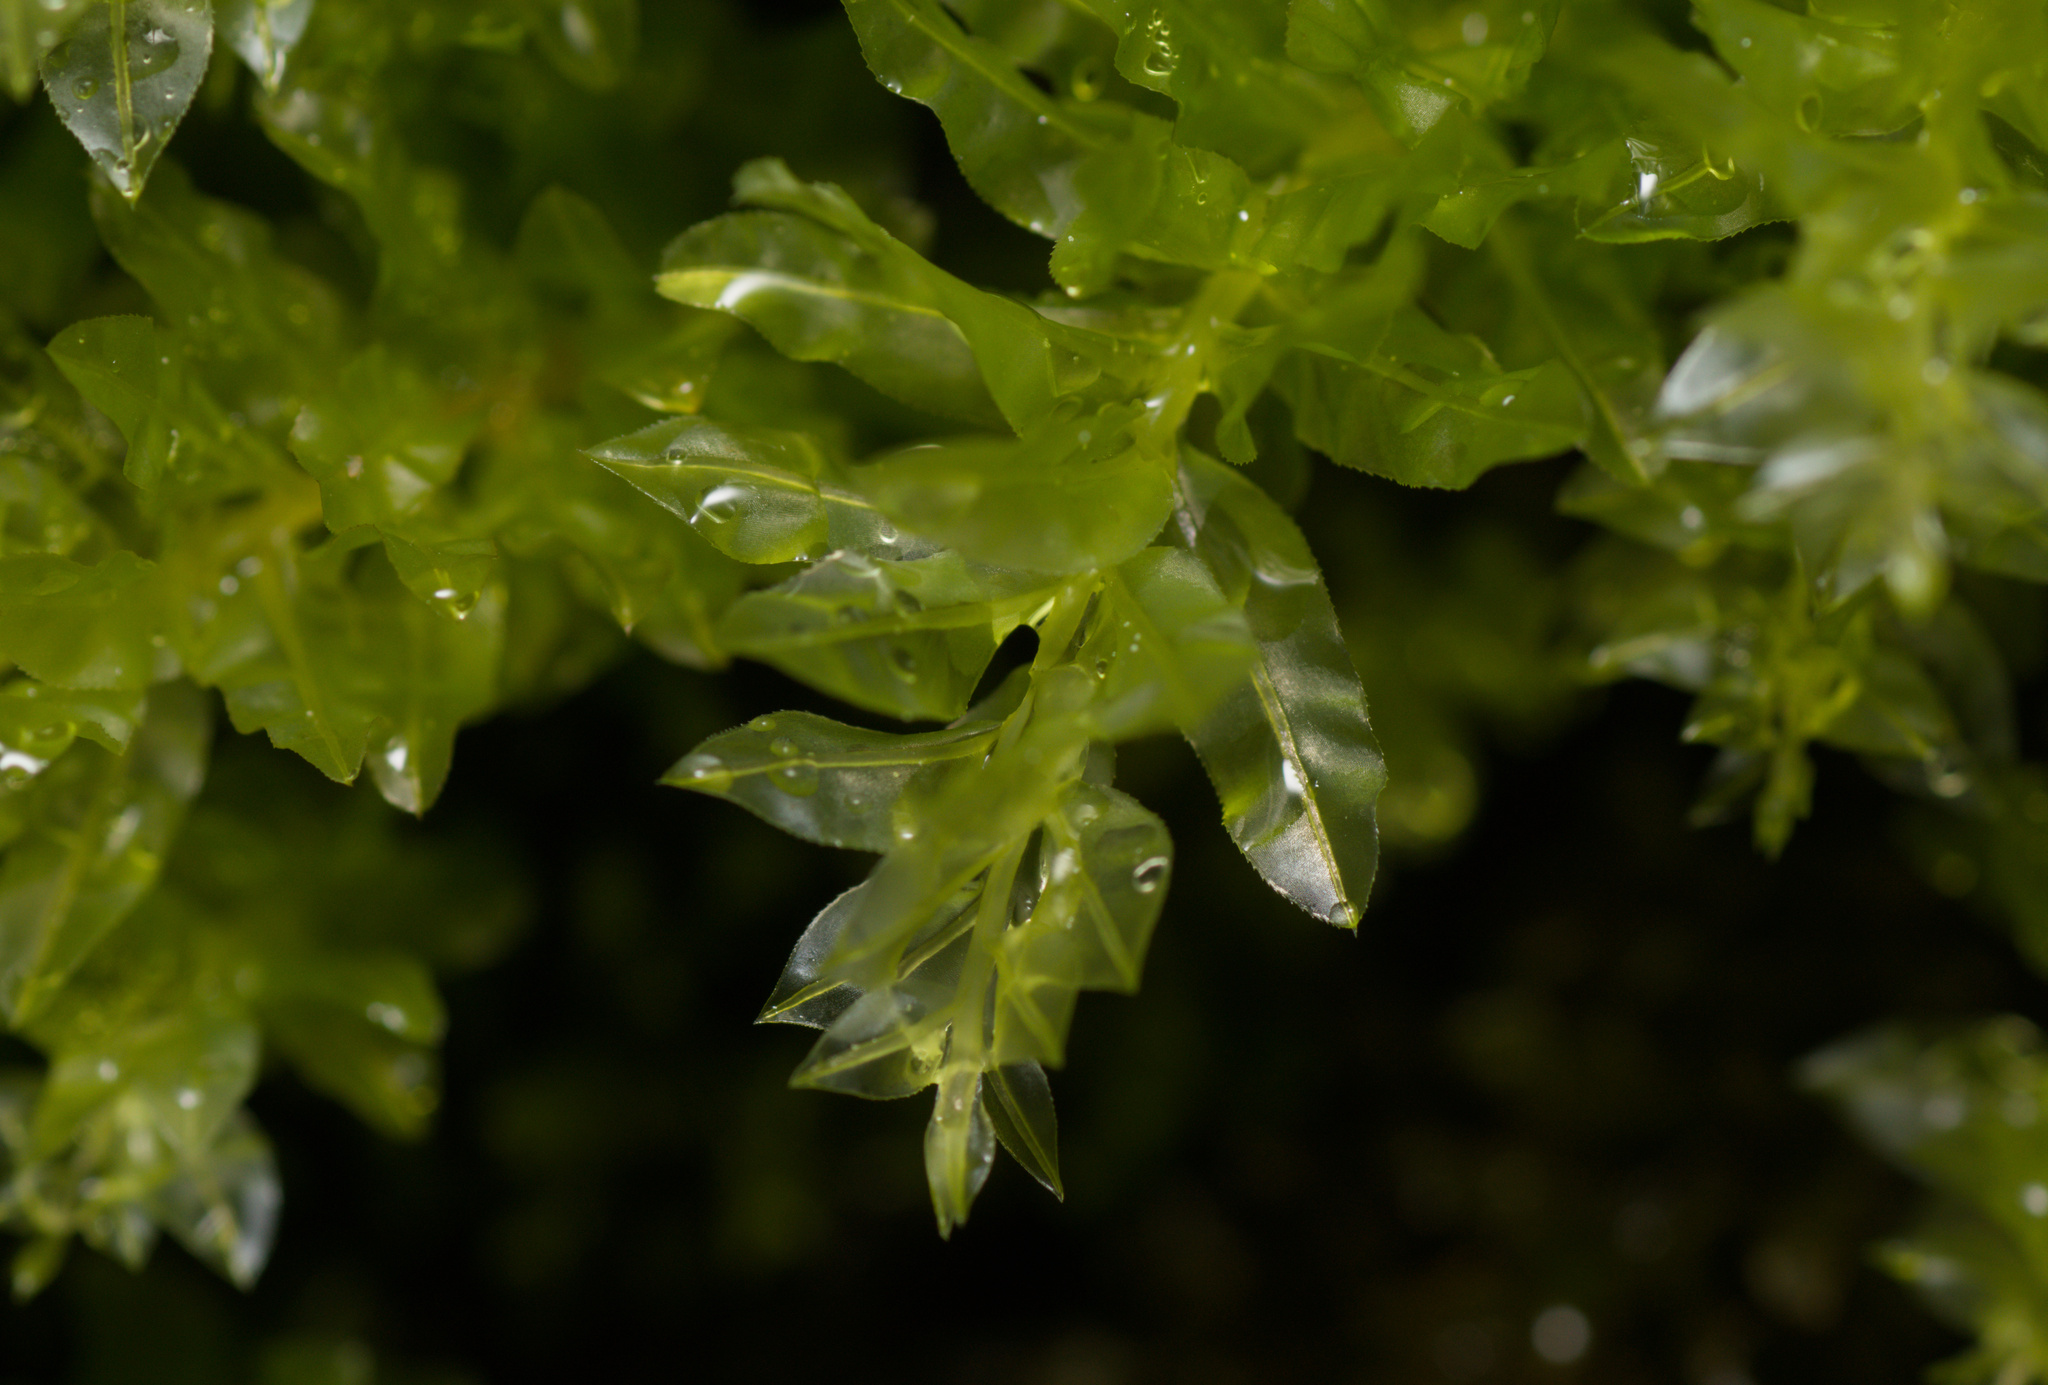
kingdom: Plantae
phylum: Bryophyta
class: Bryopsida
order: Bryales
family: Mniaceae
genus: Plagiomnium
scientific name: Plagiomnium undulatum
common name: Hart's-tongue thyme-moss
